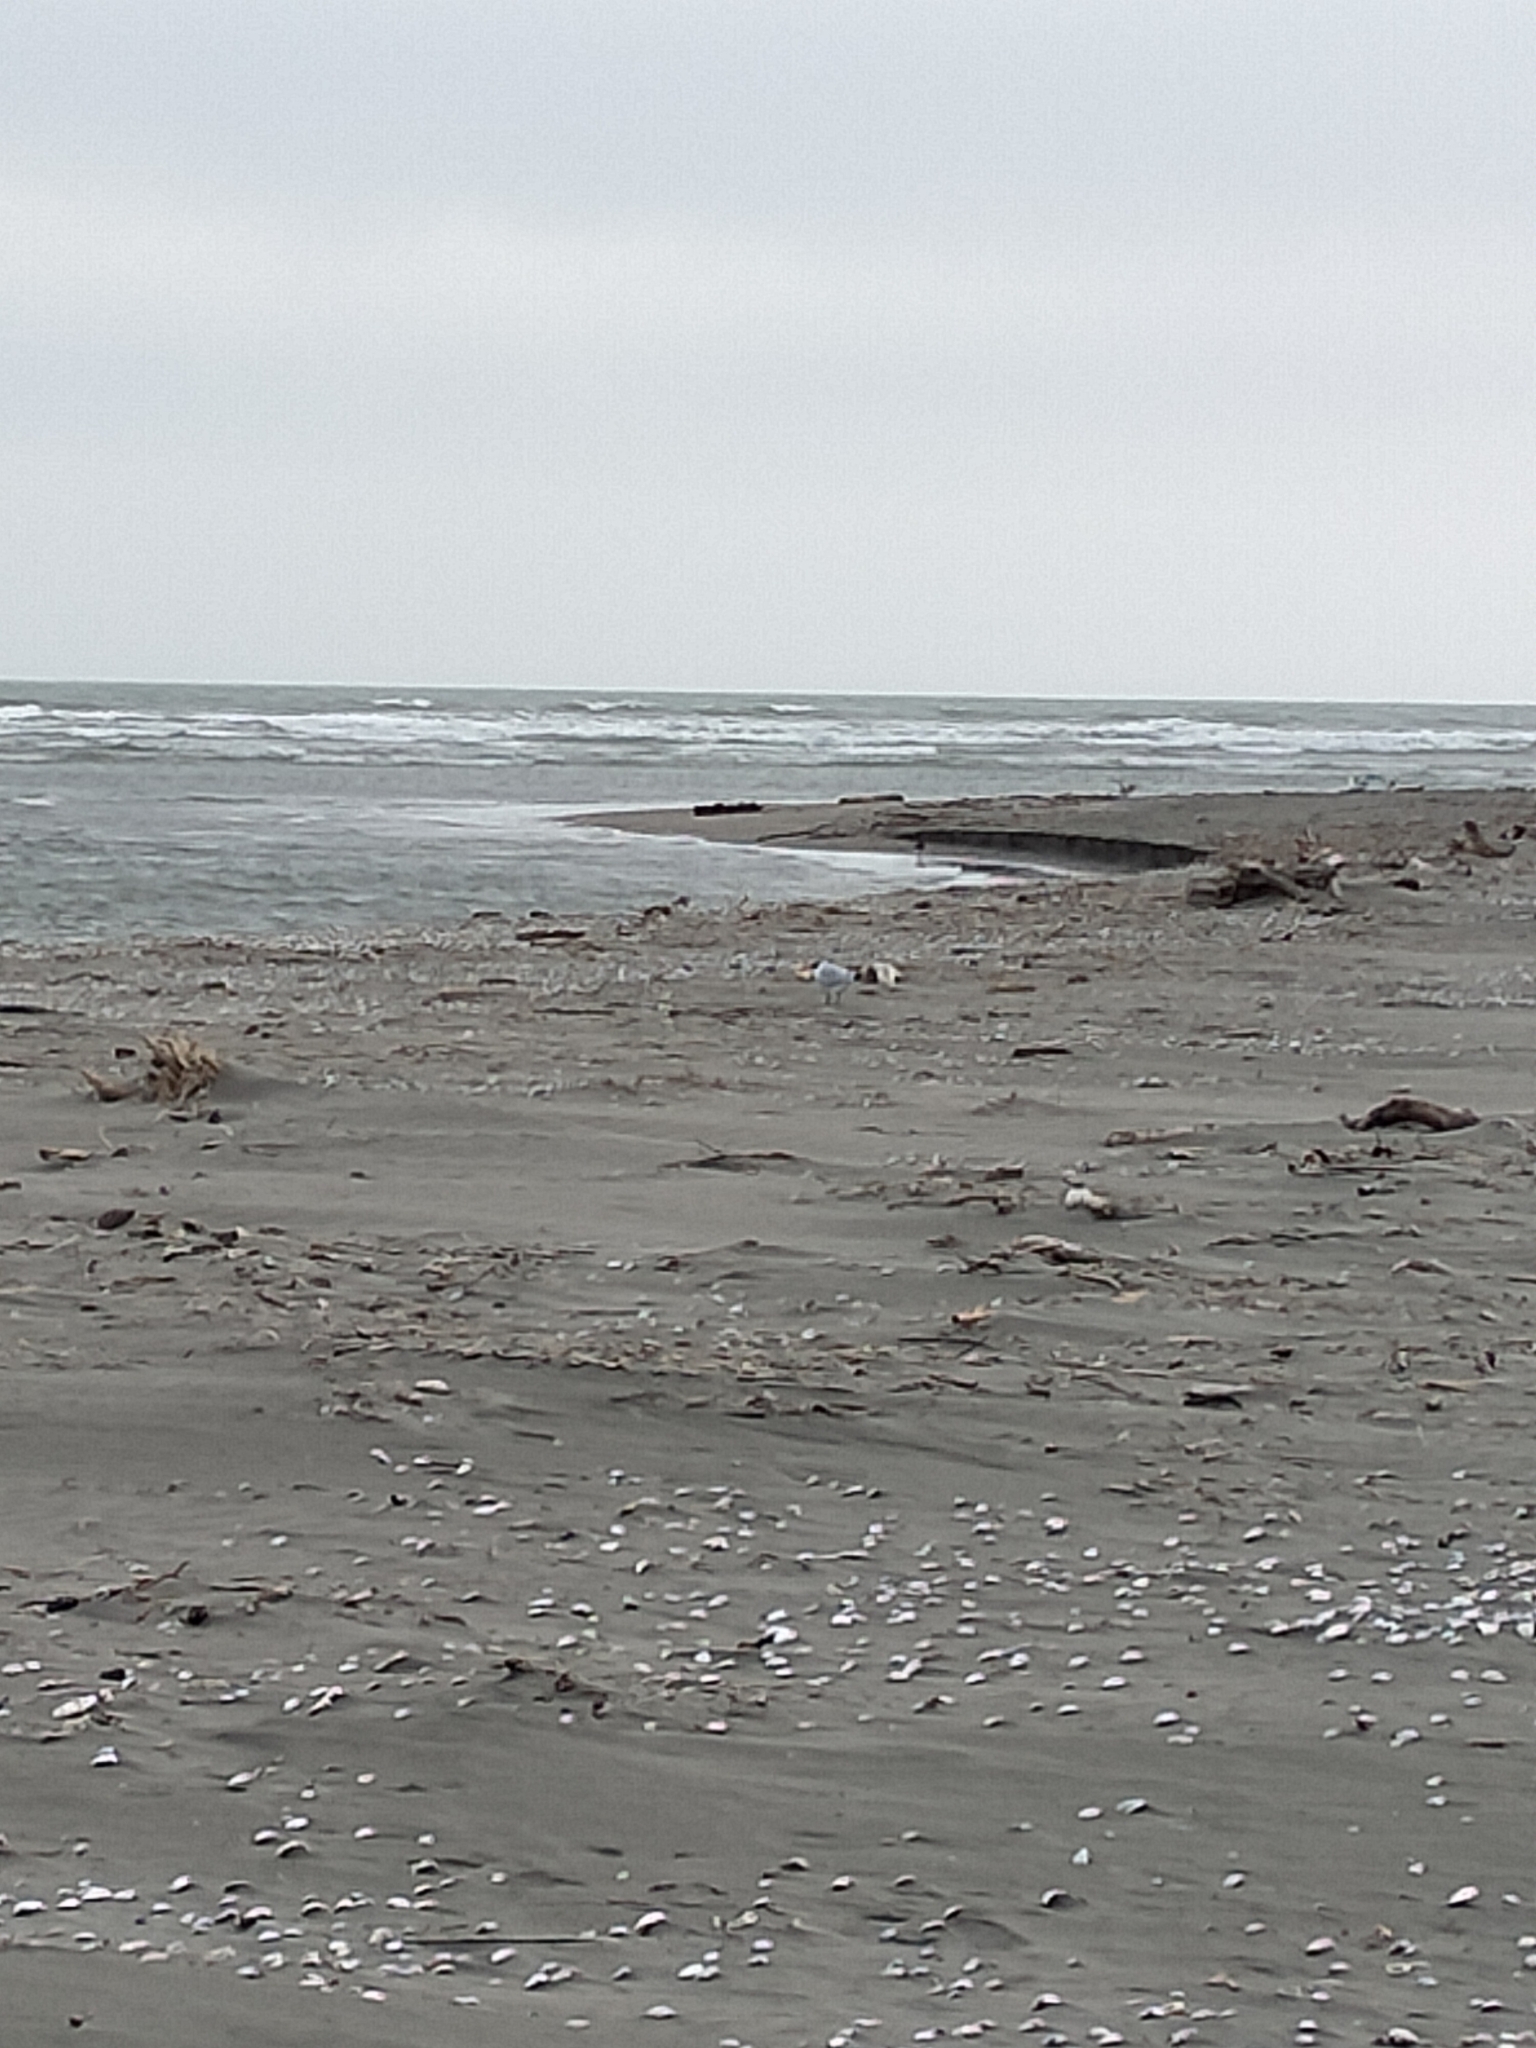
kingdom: Animalia
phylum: Chordata
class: Aves
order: Charadriiformes
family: Laridae
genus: Hydroprogne
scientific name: Hydroprogne caspia
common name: Caspian tern
